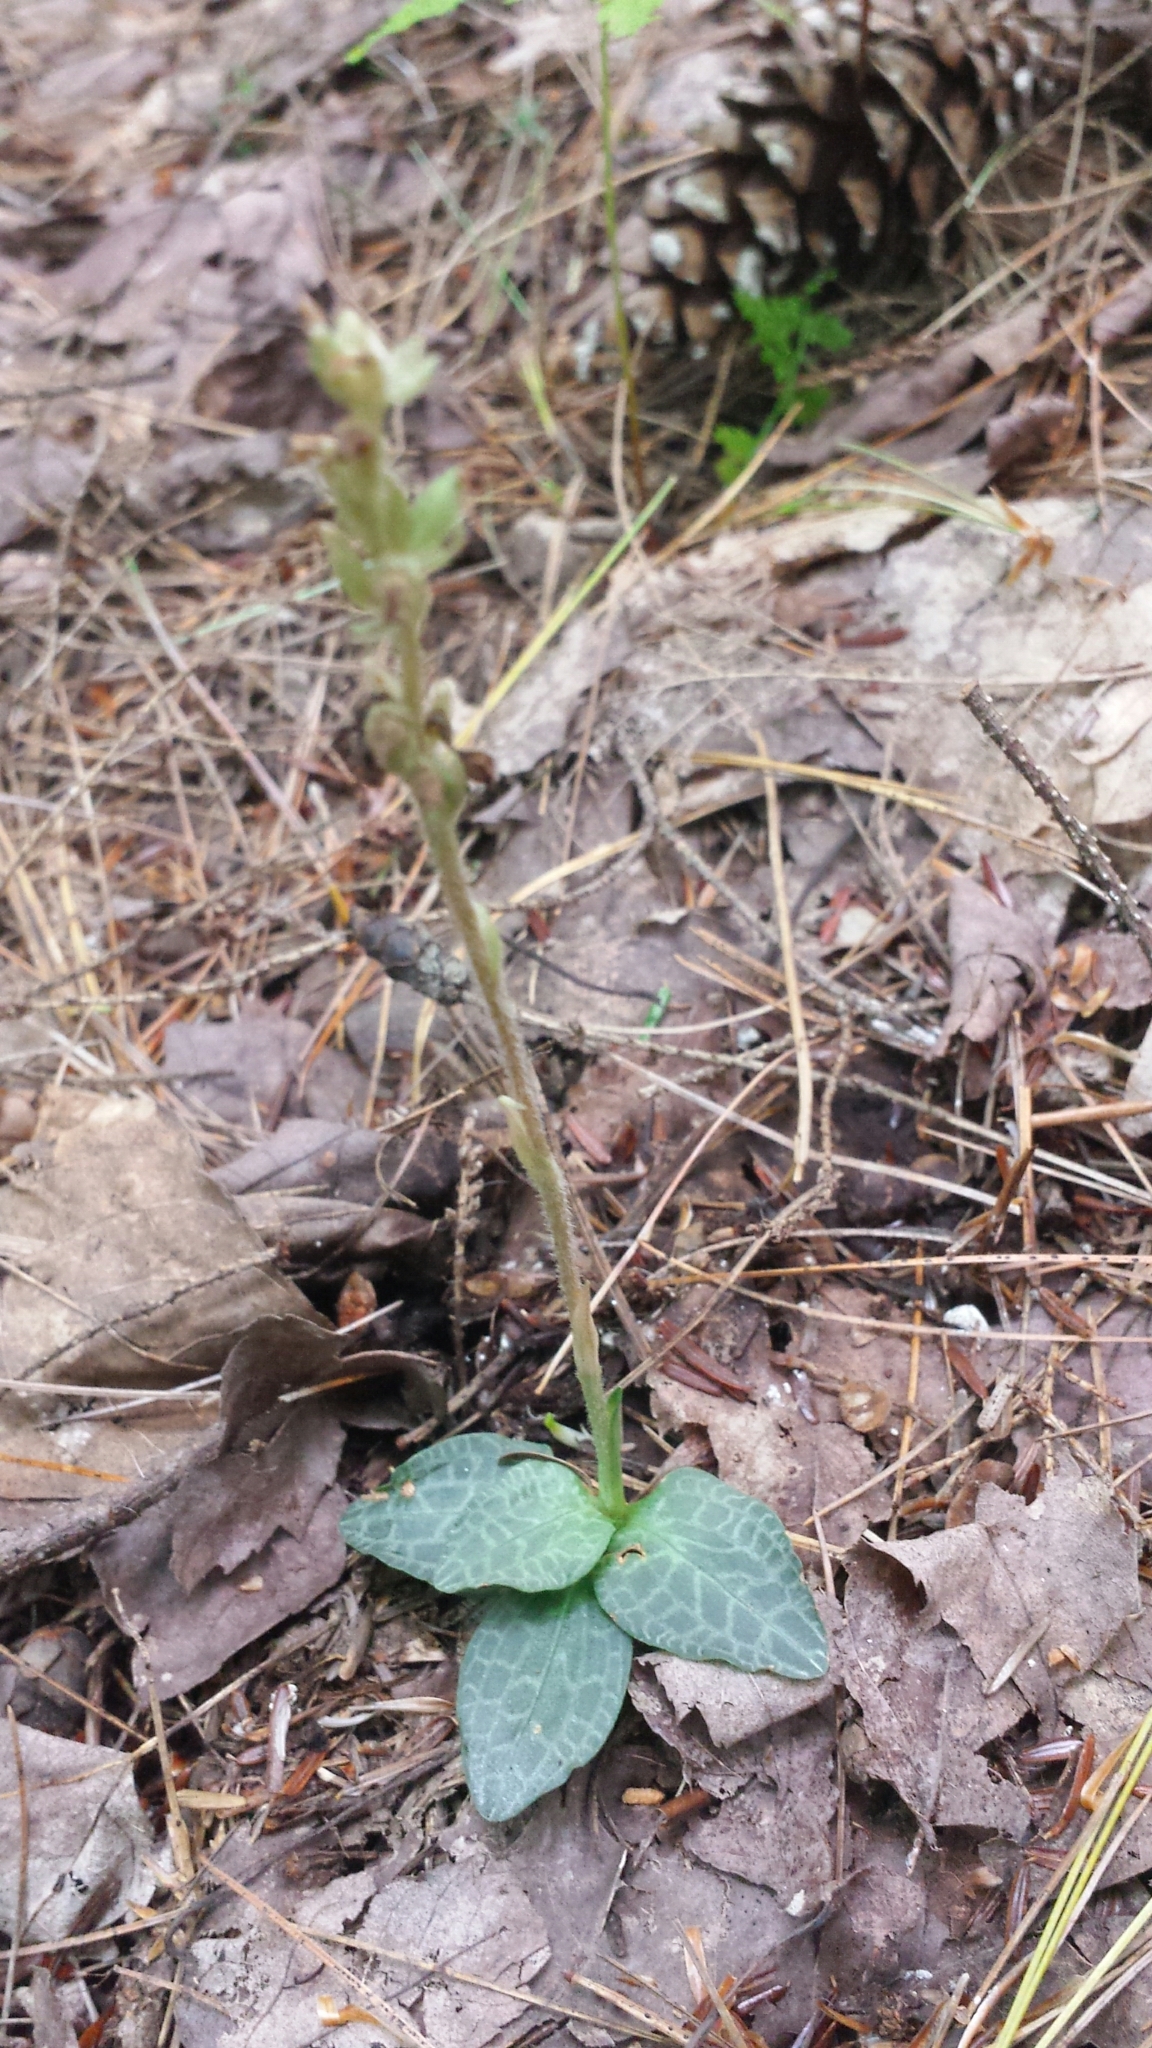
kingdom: Plantae
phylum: Tracheophyta
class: Liliopsida
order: Asparagales
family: Orchidaceae
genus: Goodyera
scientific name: Goodyera tesselata
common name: Checkered rattlesnake-plantain
